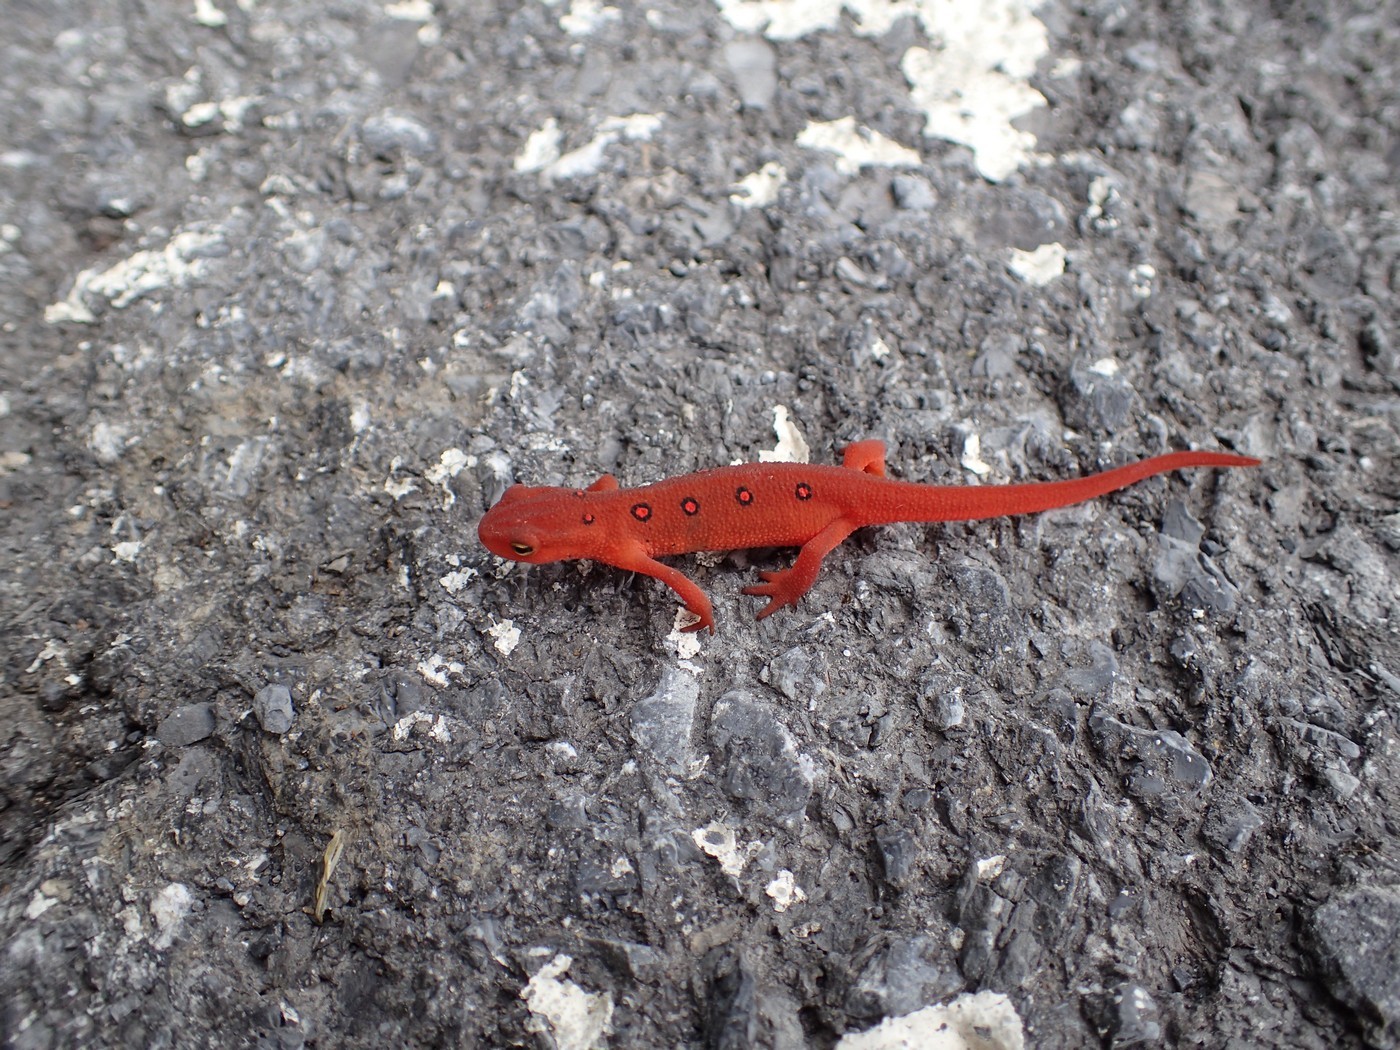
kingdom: Animalia
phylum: Chordata
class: Amphibia
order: Caudata
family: Salamandridae
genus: Notophthalmus
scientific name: Notophthalmus viridescens
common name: Eastern newt
